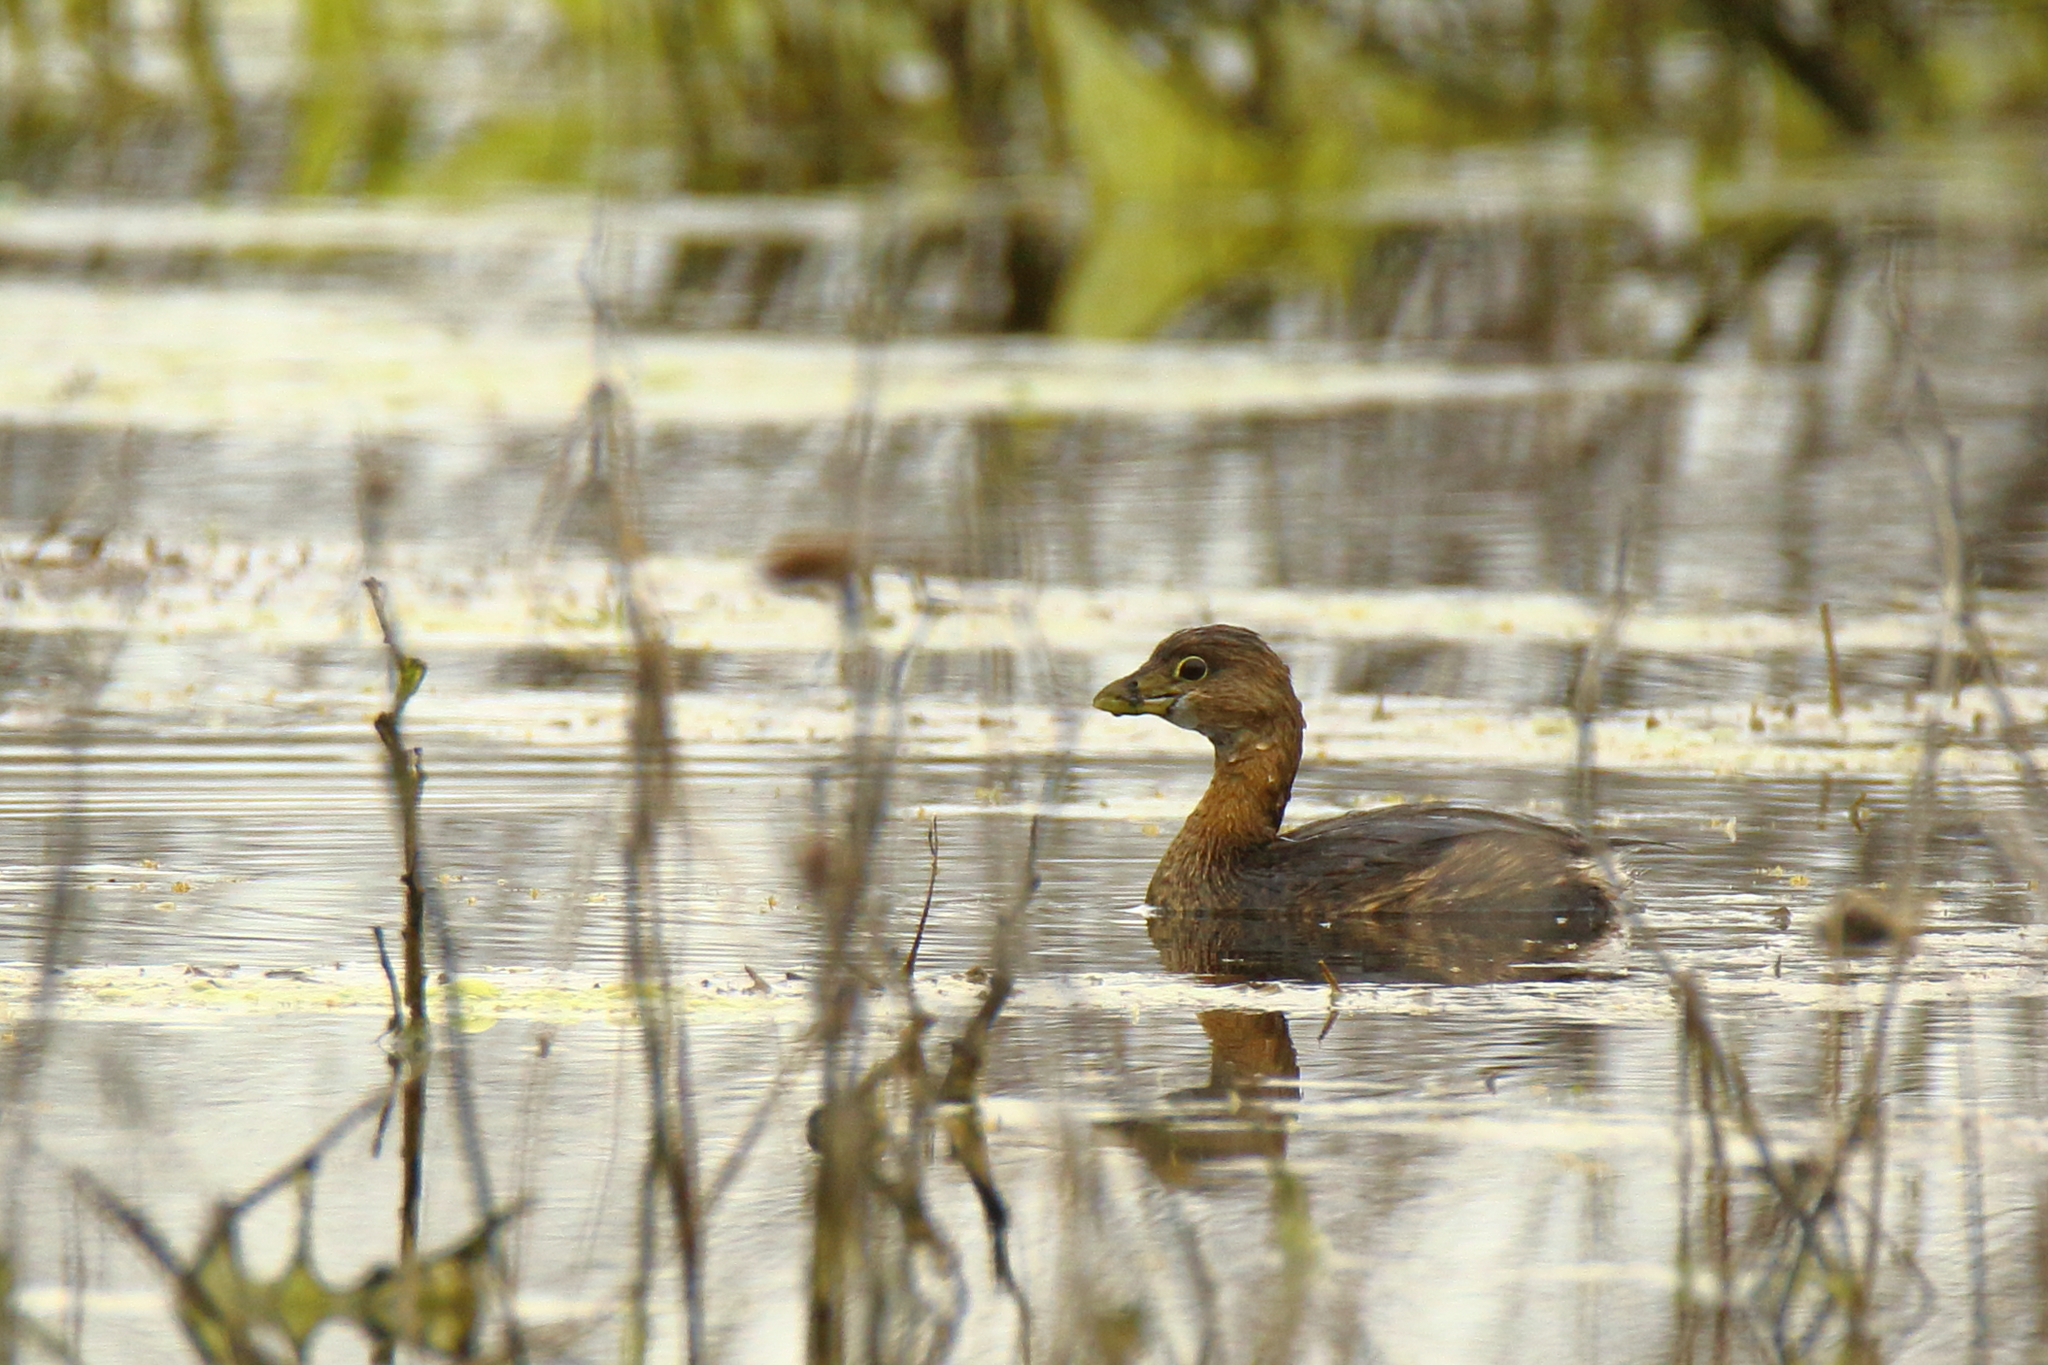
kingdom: Animalia
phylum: Chordata
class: Aves
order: Podicipediformes
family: Podicipedidae
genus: Podilymbus
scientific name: Podilymbus podiceps
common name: Pied-billed grebe
